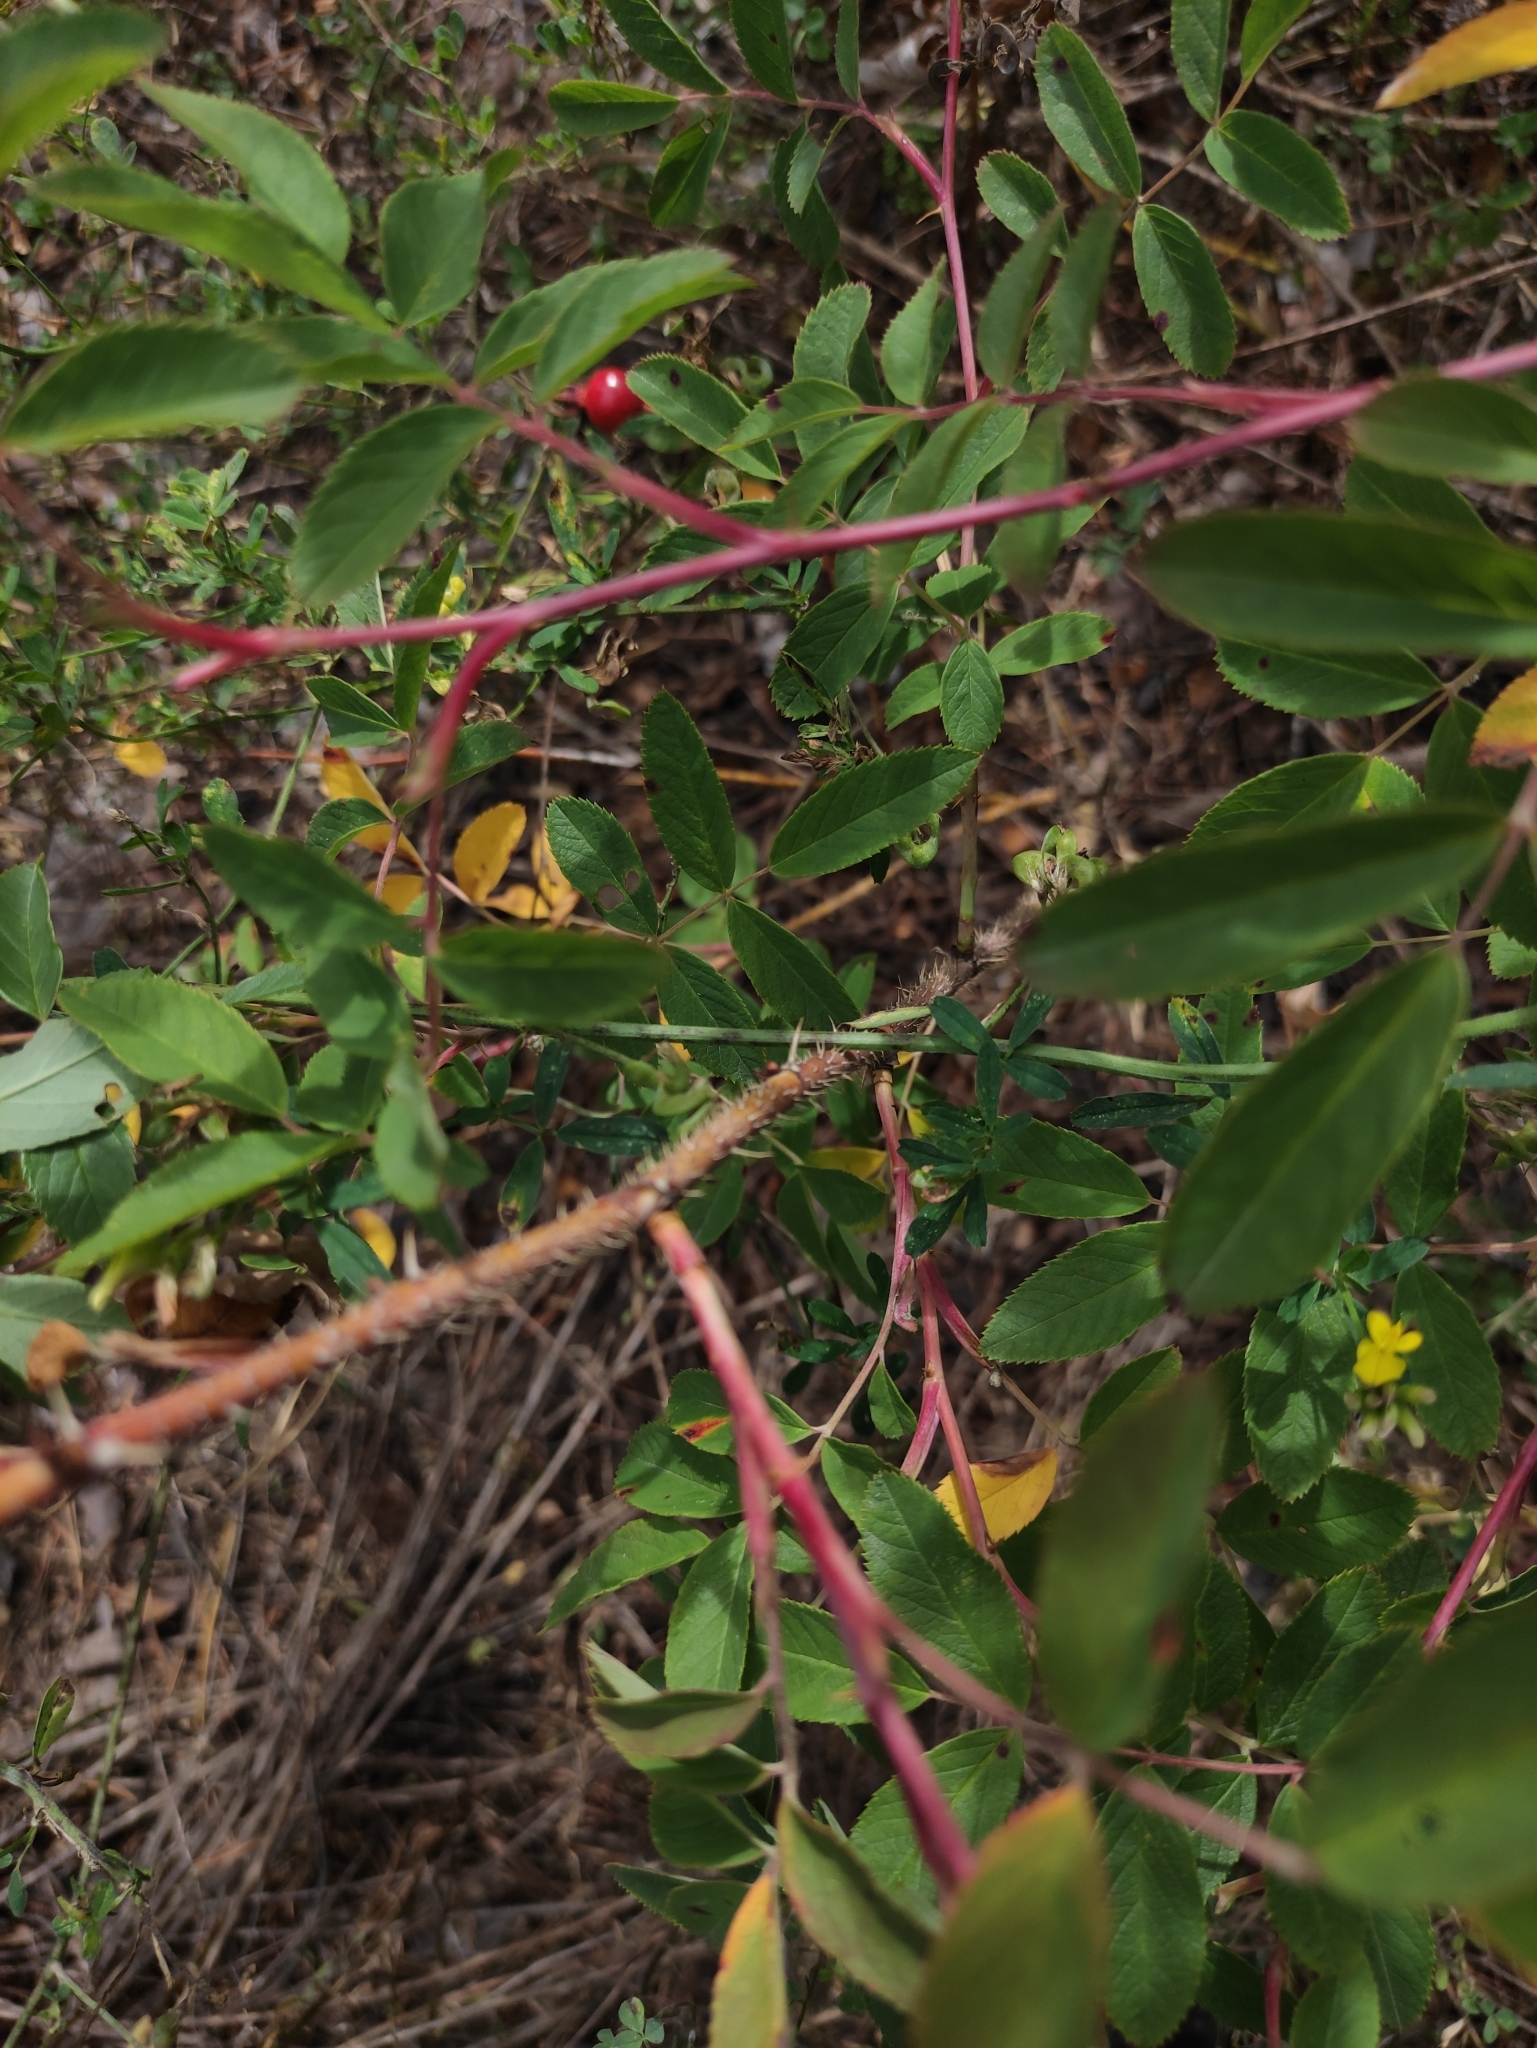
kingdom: Plantae
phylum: Tracheophyta
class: Magnoliopsida
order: Rosales
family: Rosaceae
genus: Rosa
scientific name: Rosa majalis
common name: Cinnamon rose
